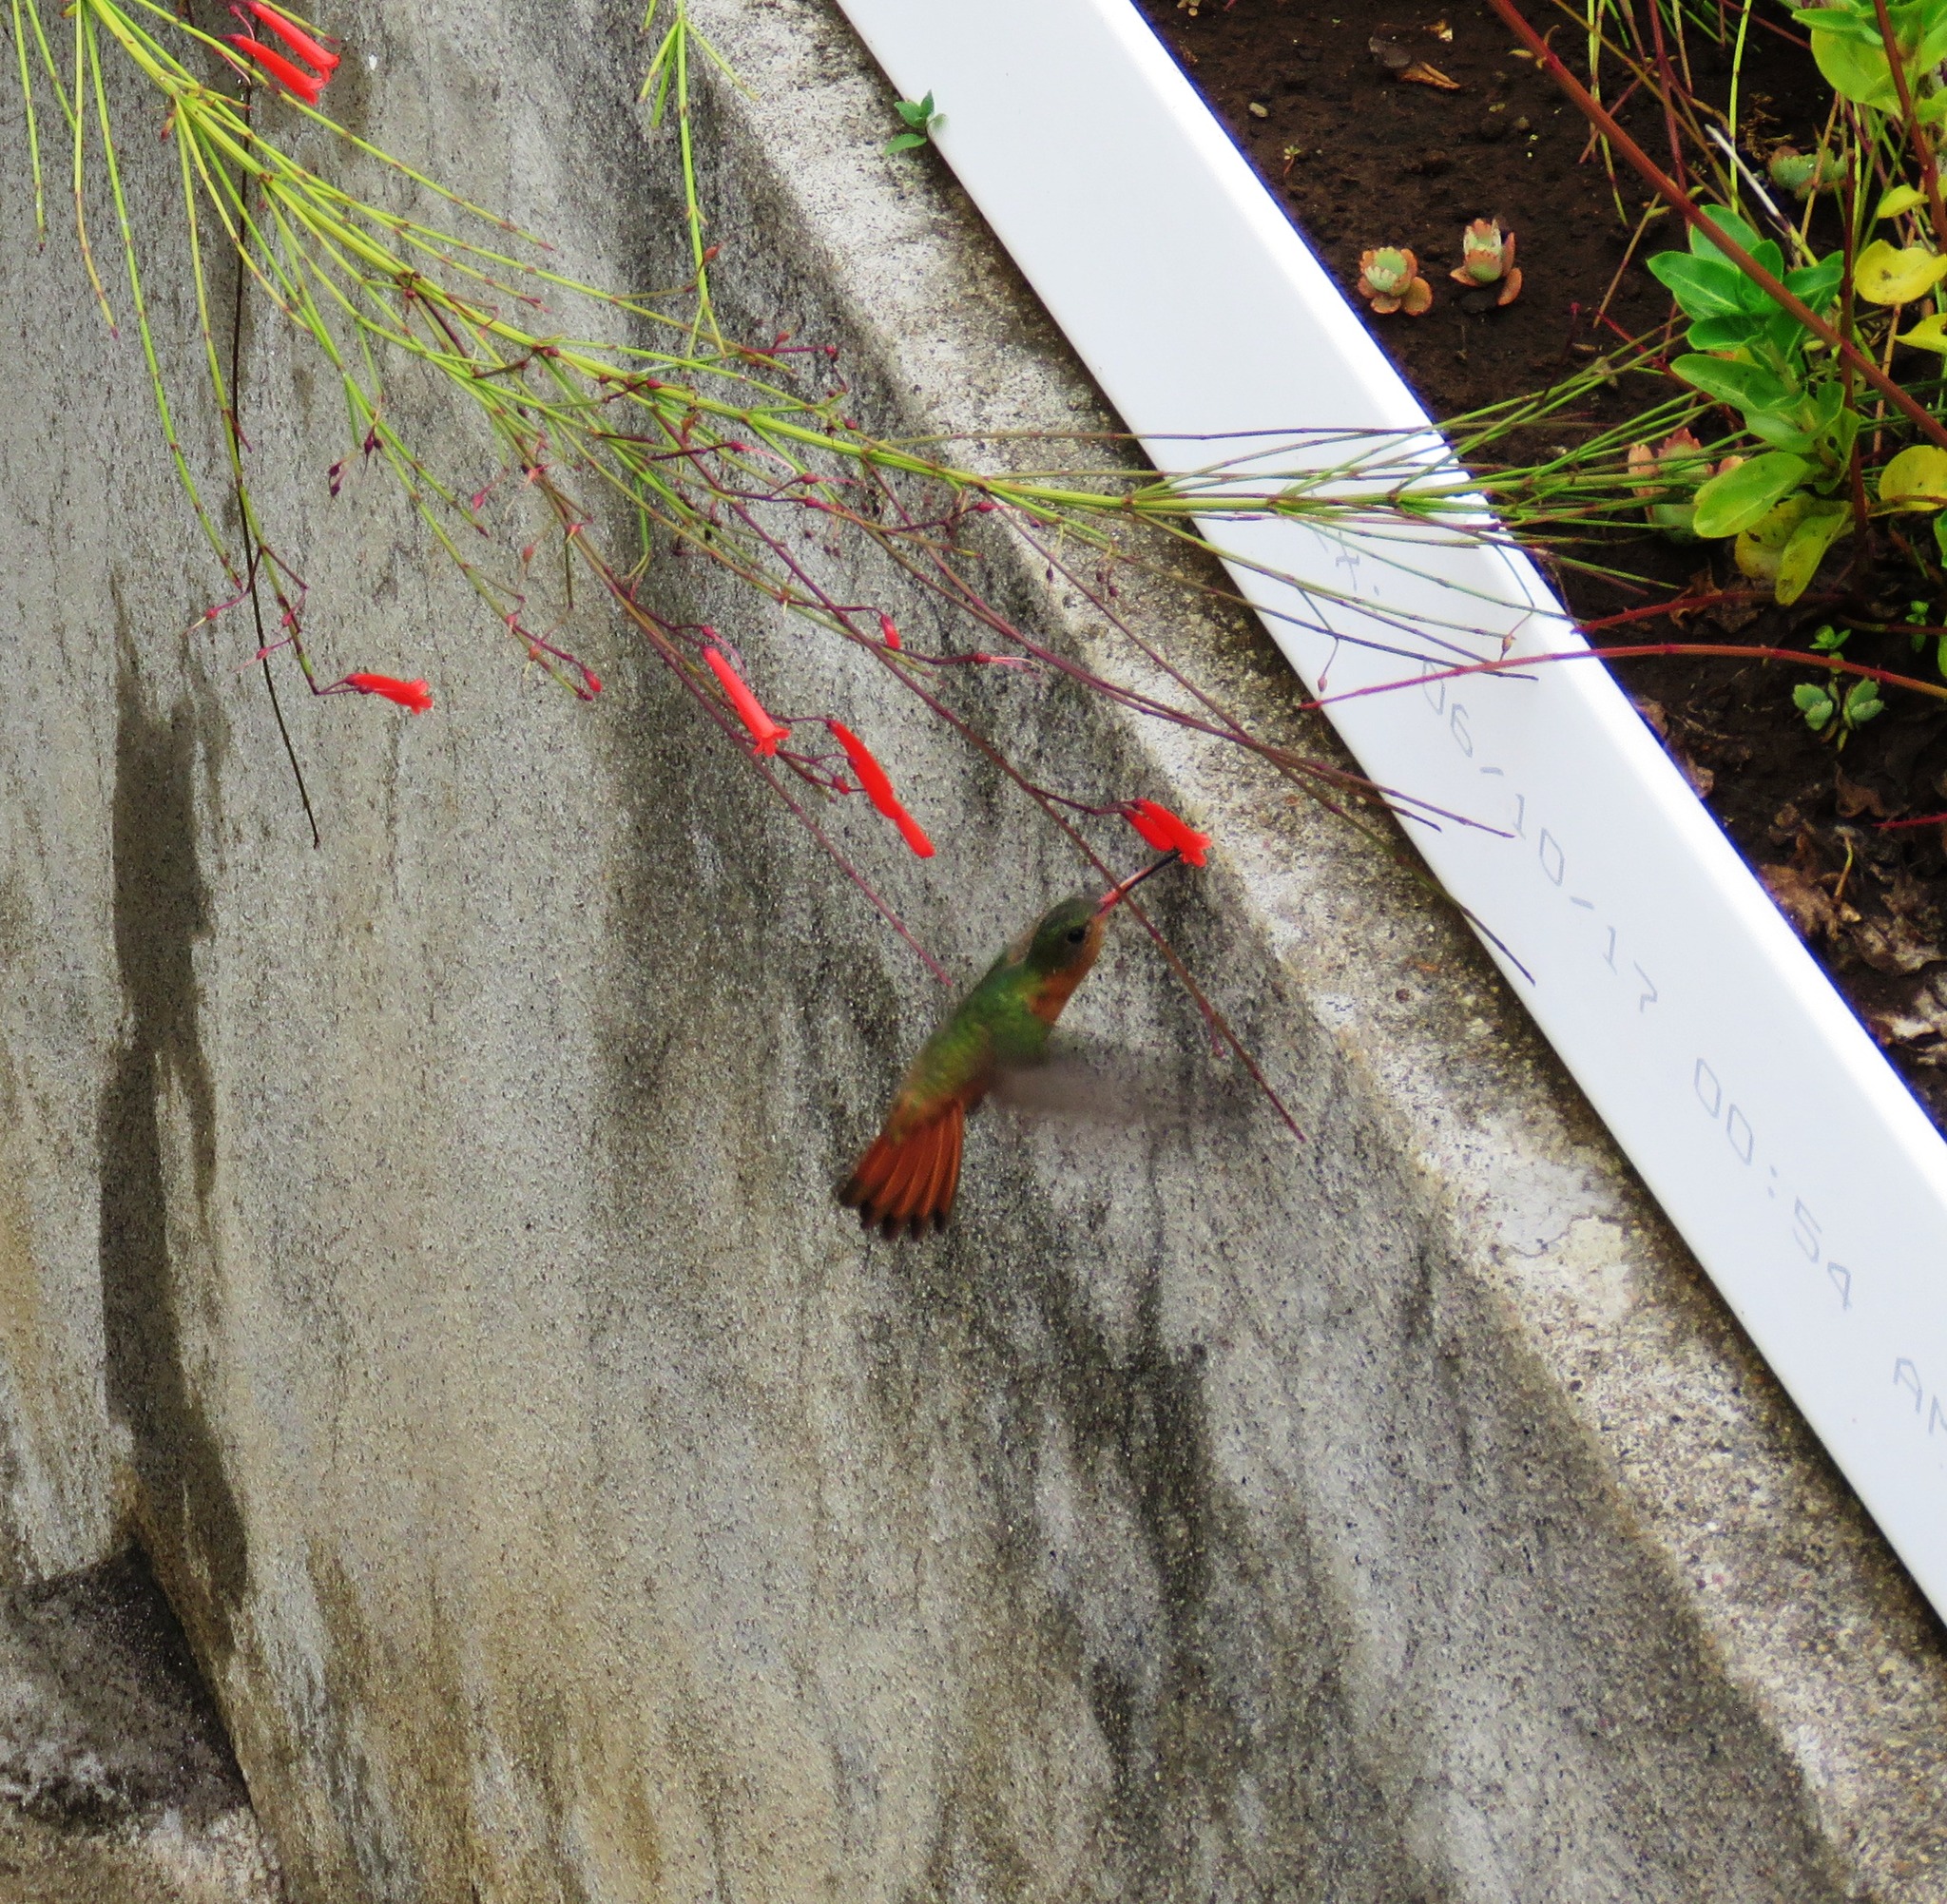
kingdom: Animalia
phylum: Chordata
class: Aves
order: Apodiformes
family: Trochilidae
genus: Amazilia
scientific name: Amazilia rutila
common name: Cinnamon hummingbird
